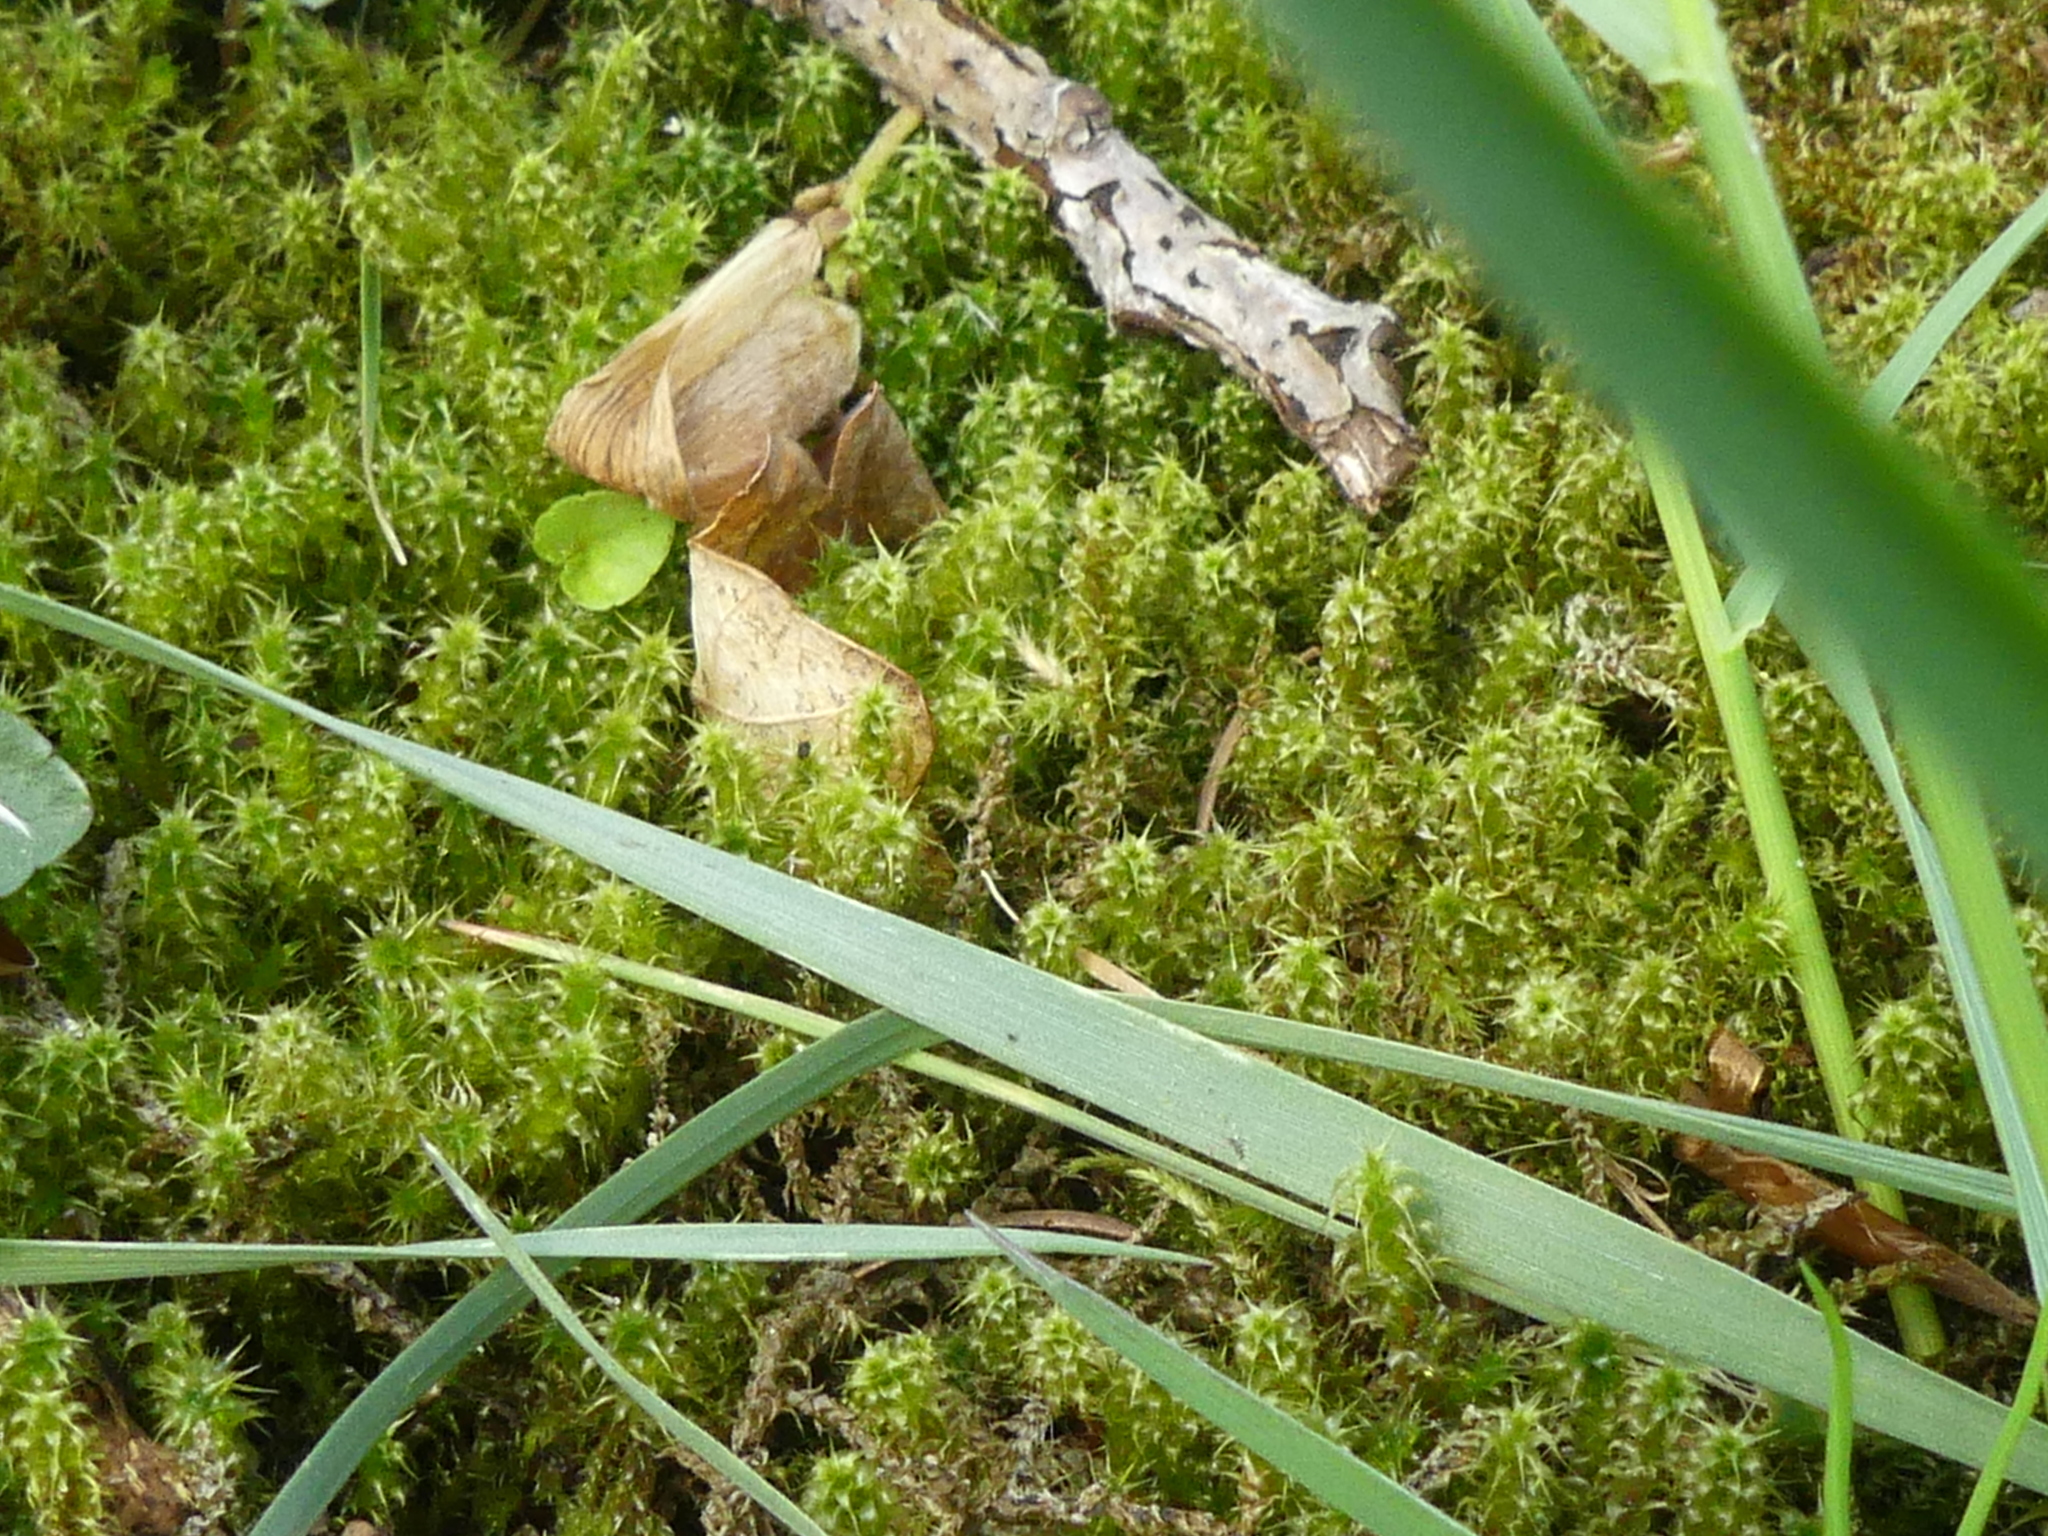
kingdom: Plantae
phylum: Bryophyta
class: Bryopsida
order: Hypnales
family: Hylocomiaceae
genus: Rhytidiadelphus
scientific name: Rhytidiadelphus squarrosus
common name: Springy turf-moss
